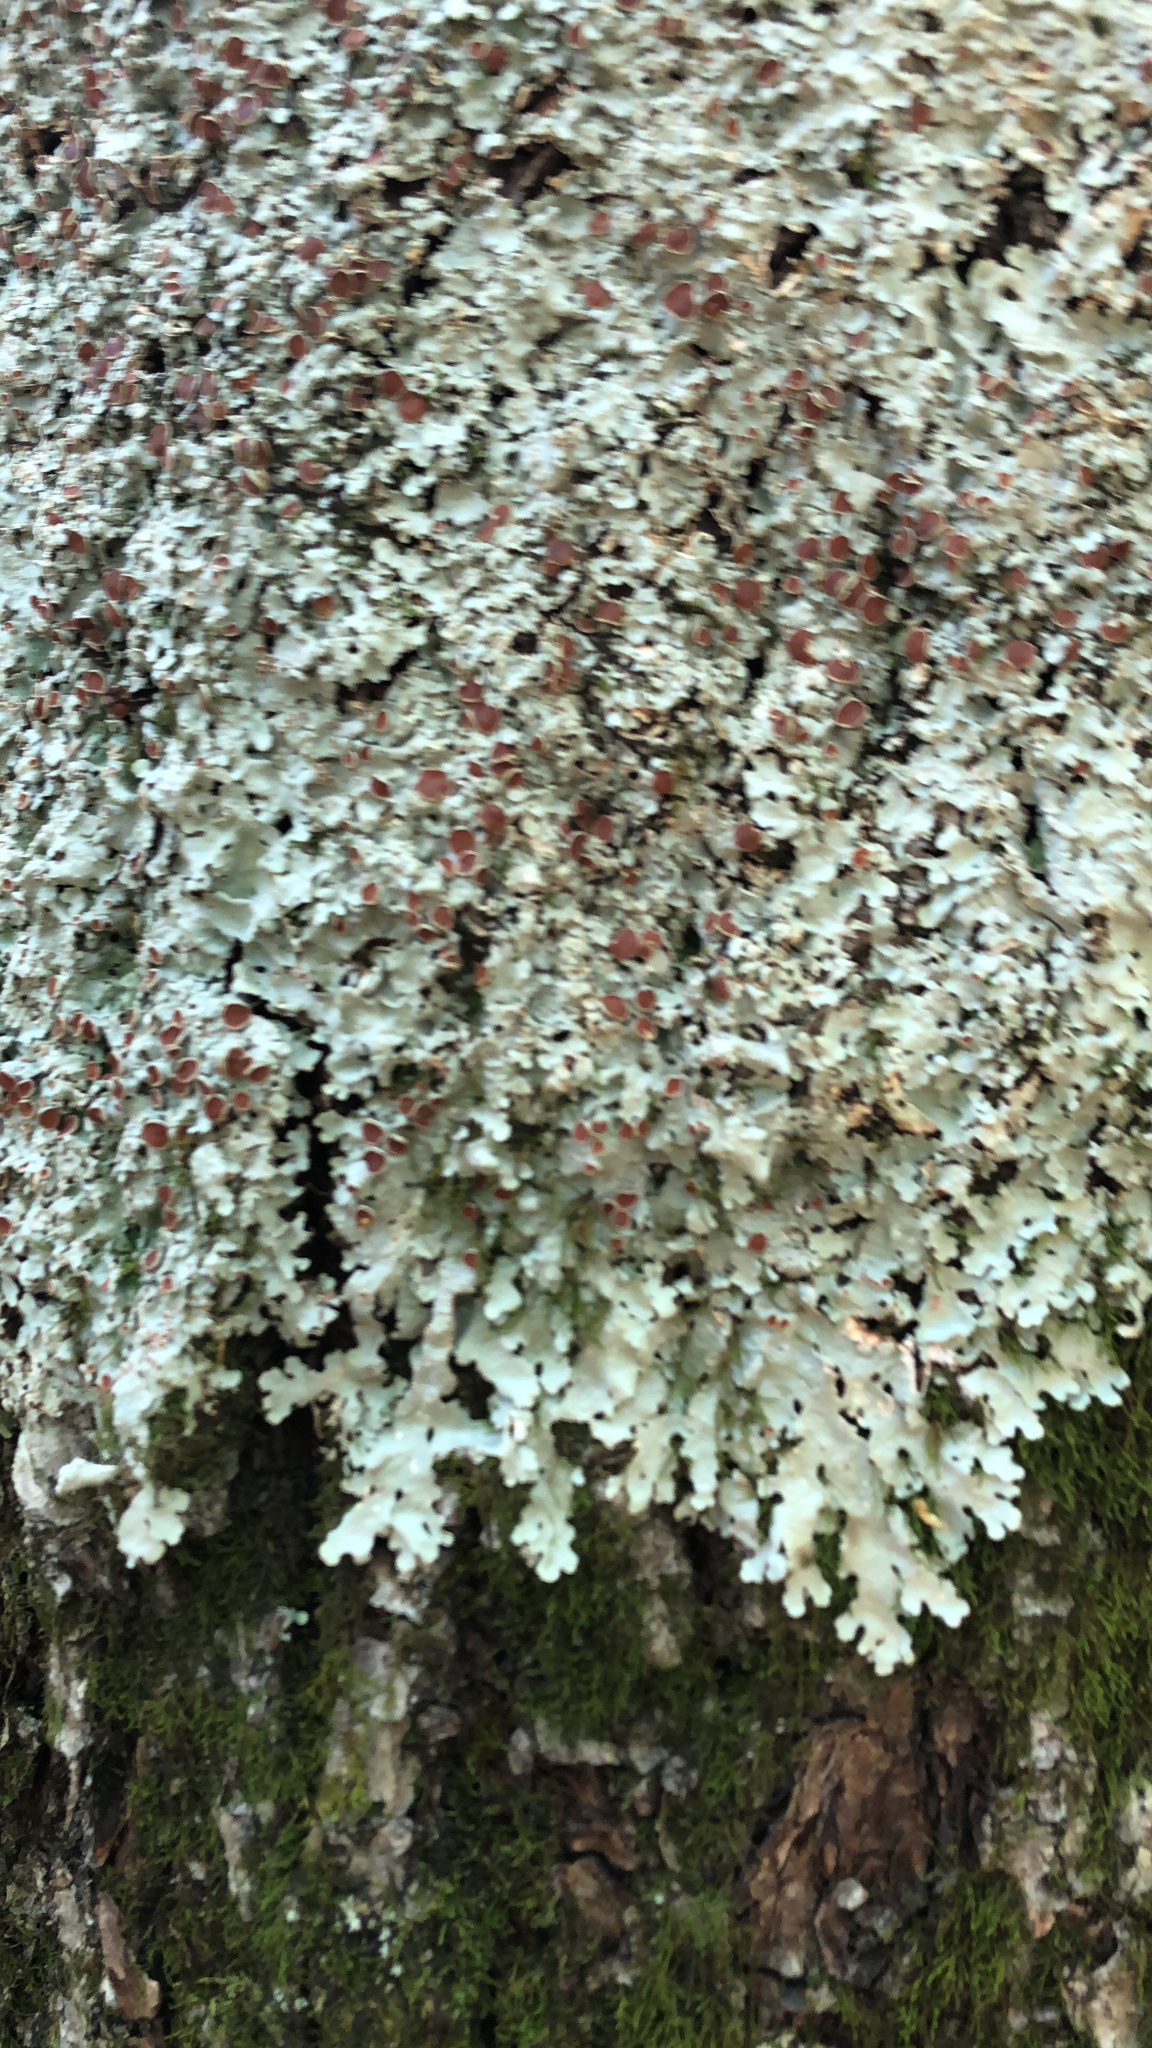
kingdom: Fungi
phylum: Ascomycota
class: Lecanoromycetes
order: Peltigerales
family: Lobariaceae
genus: Ricasolia
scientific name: Ricasolia quercizans
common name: Smooth lungwort
